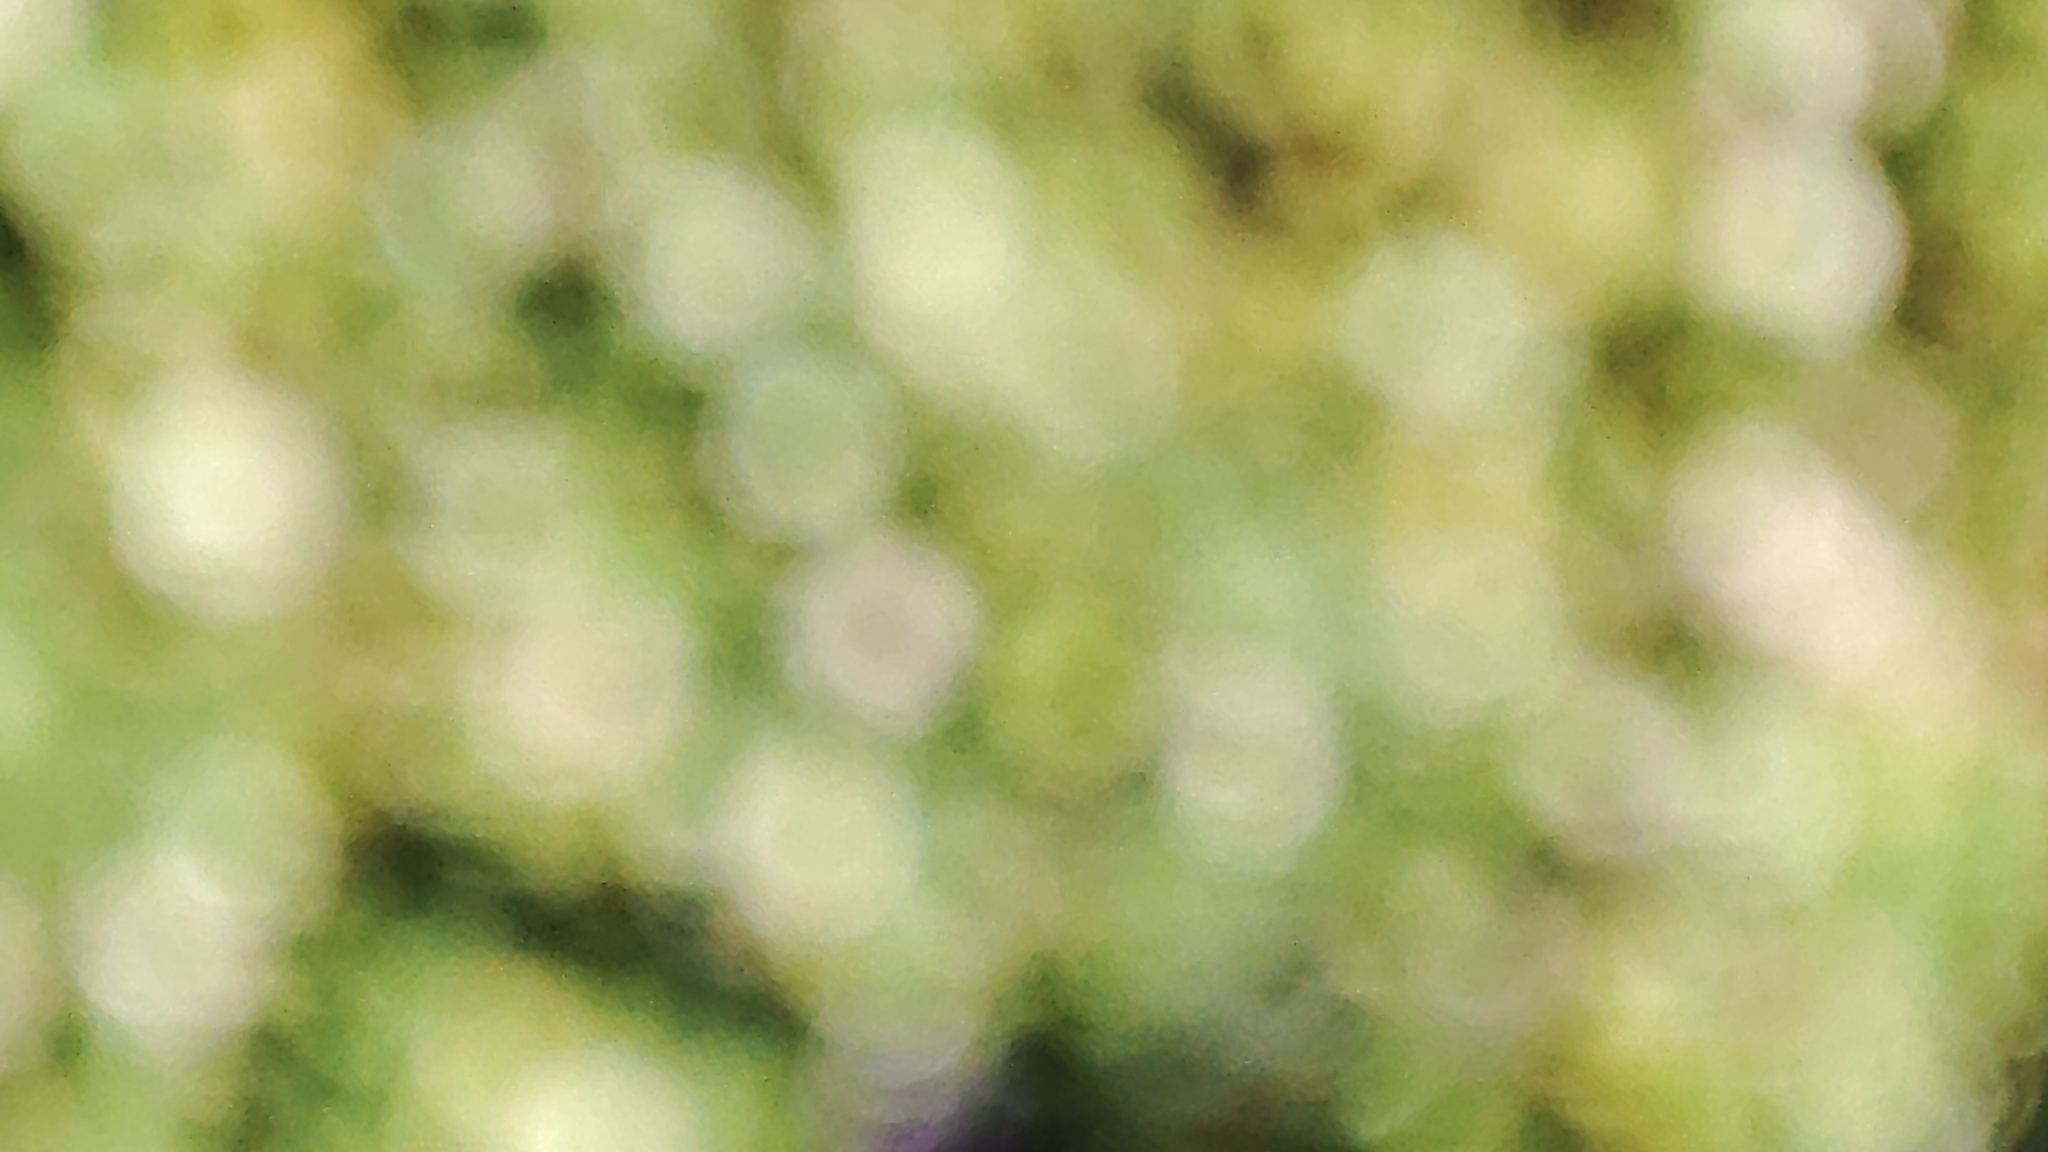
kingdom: Plantae
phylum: Tracheophyta
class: Magnoliopsida
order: Caryophyllales
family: Caryophyllaceae
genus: Silene
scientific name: Silene gallica
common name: Small-flowered catchfly
